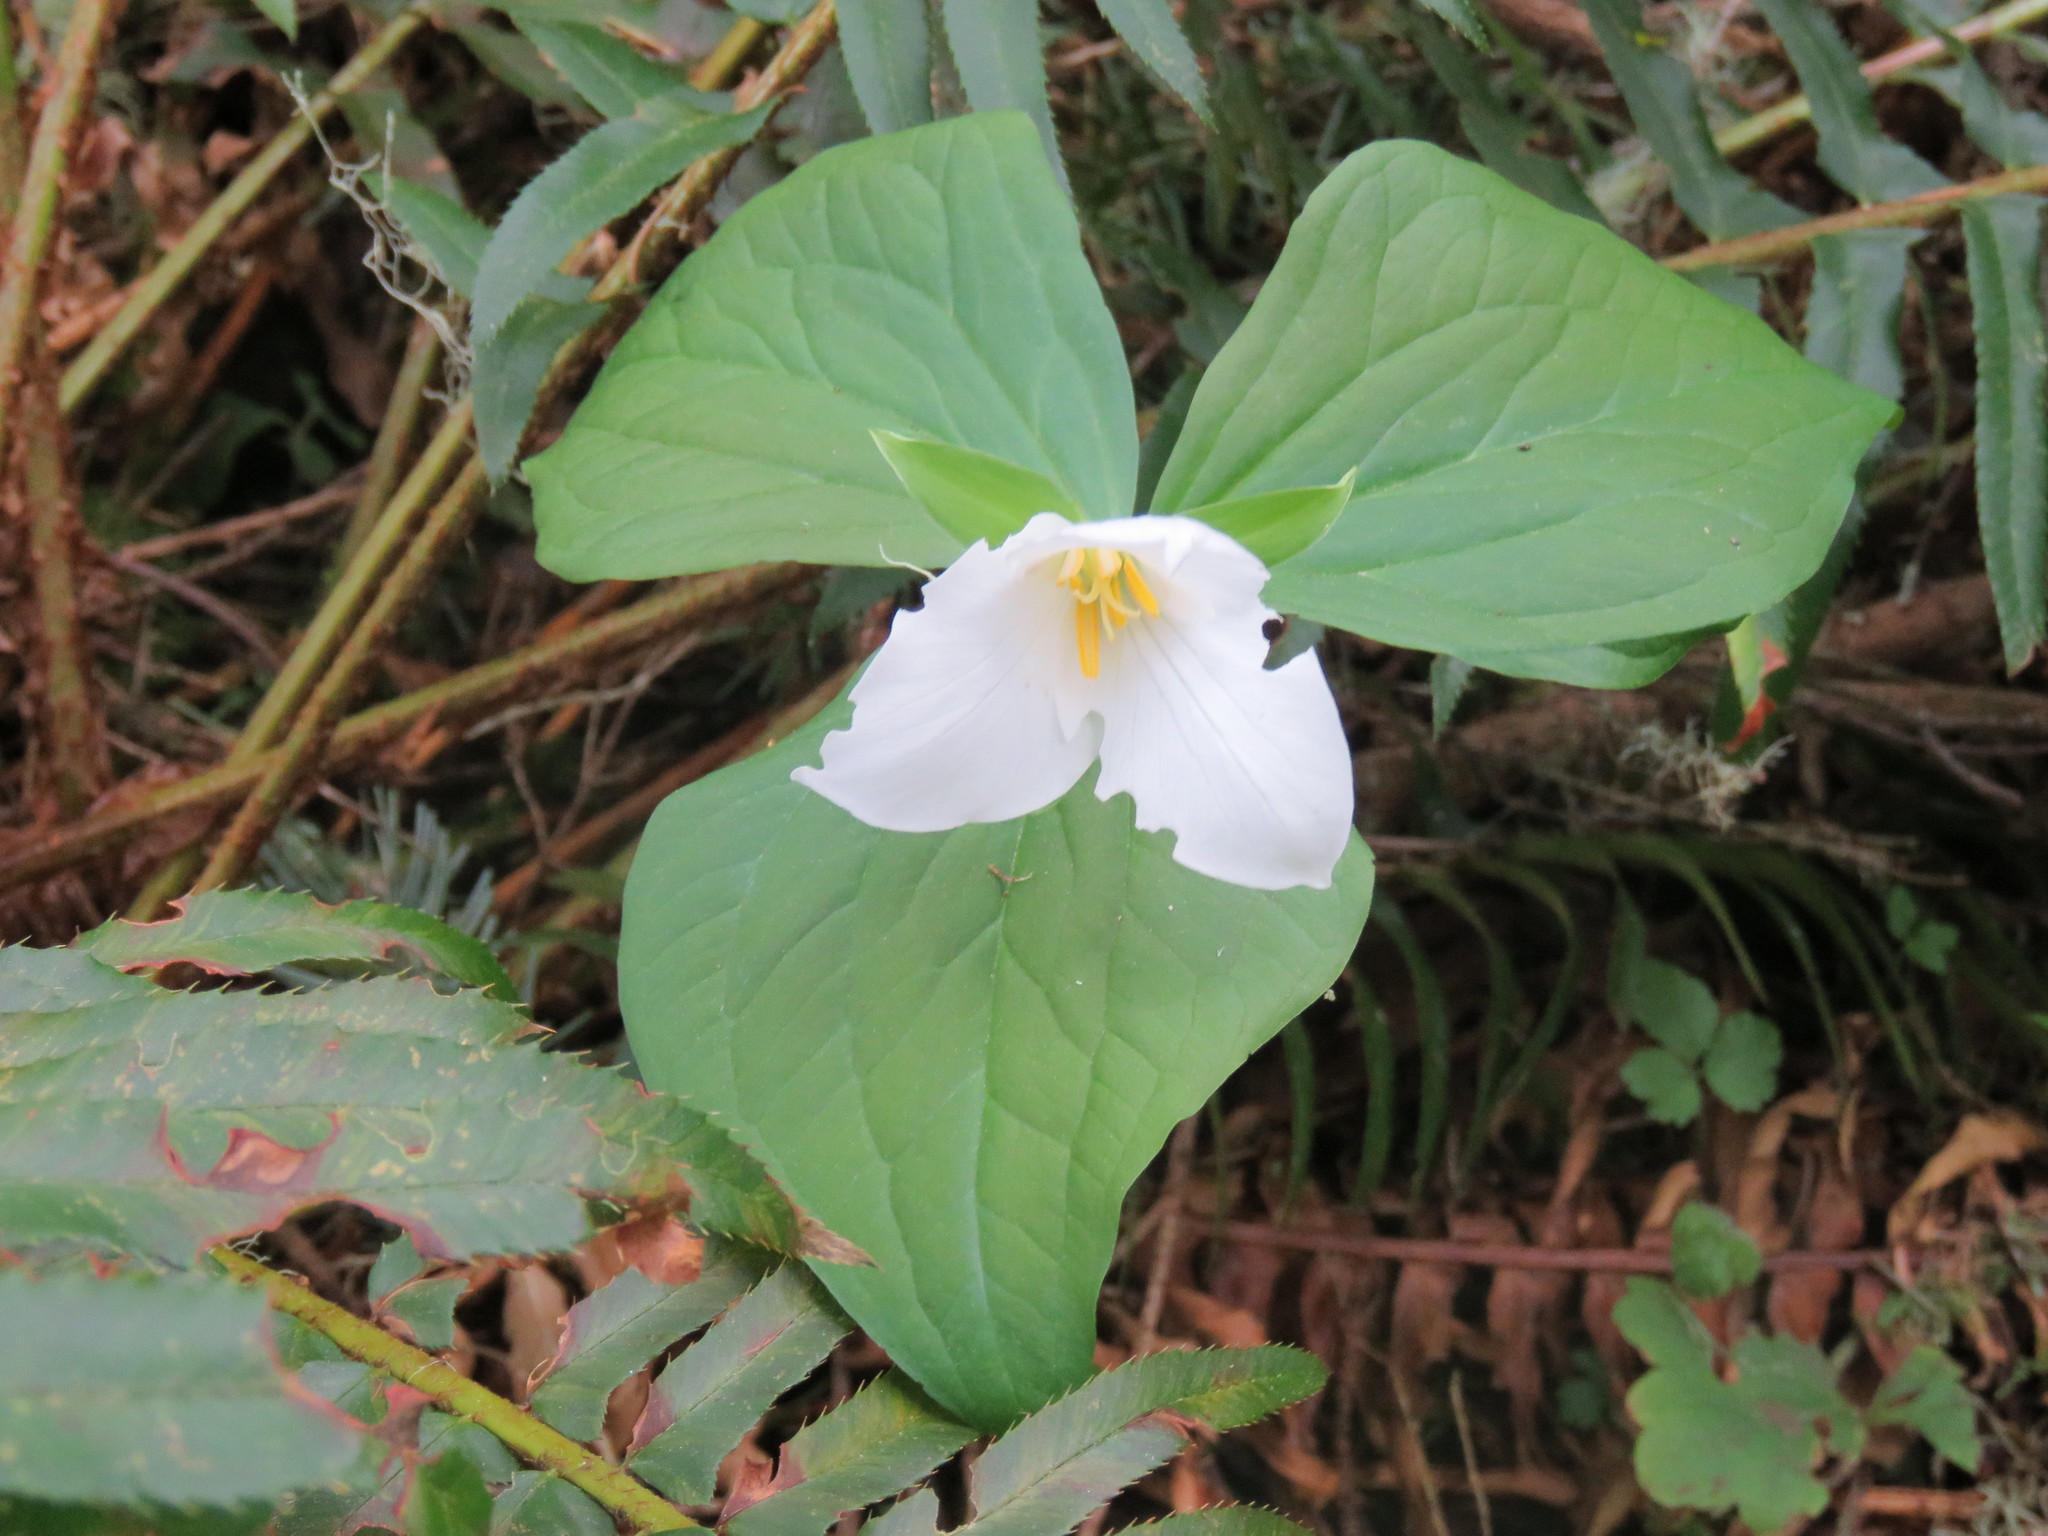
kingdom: Plantae
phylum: Tracheophyta
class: Liliopsida
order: Liliales
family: Melanthiaceae
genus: Trillium
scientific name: Trillium ovatum
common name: Pacific trillium
